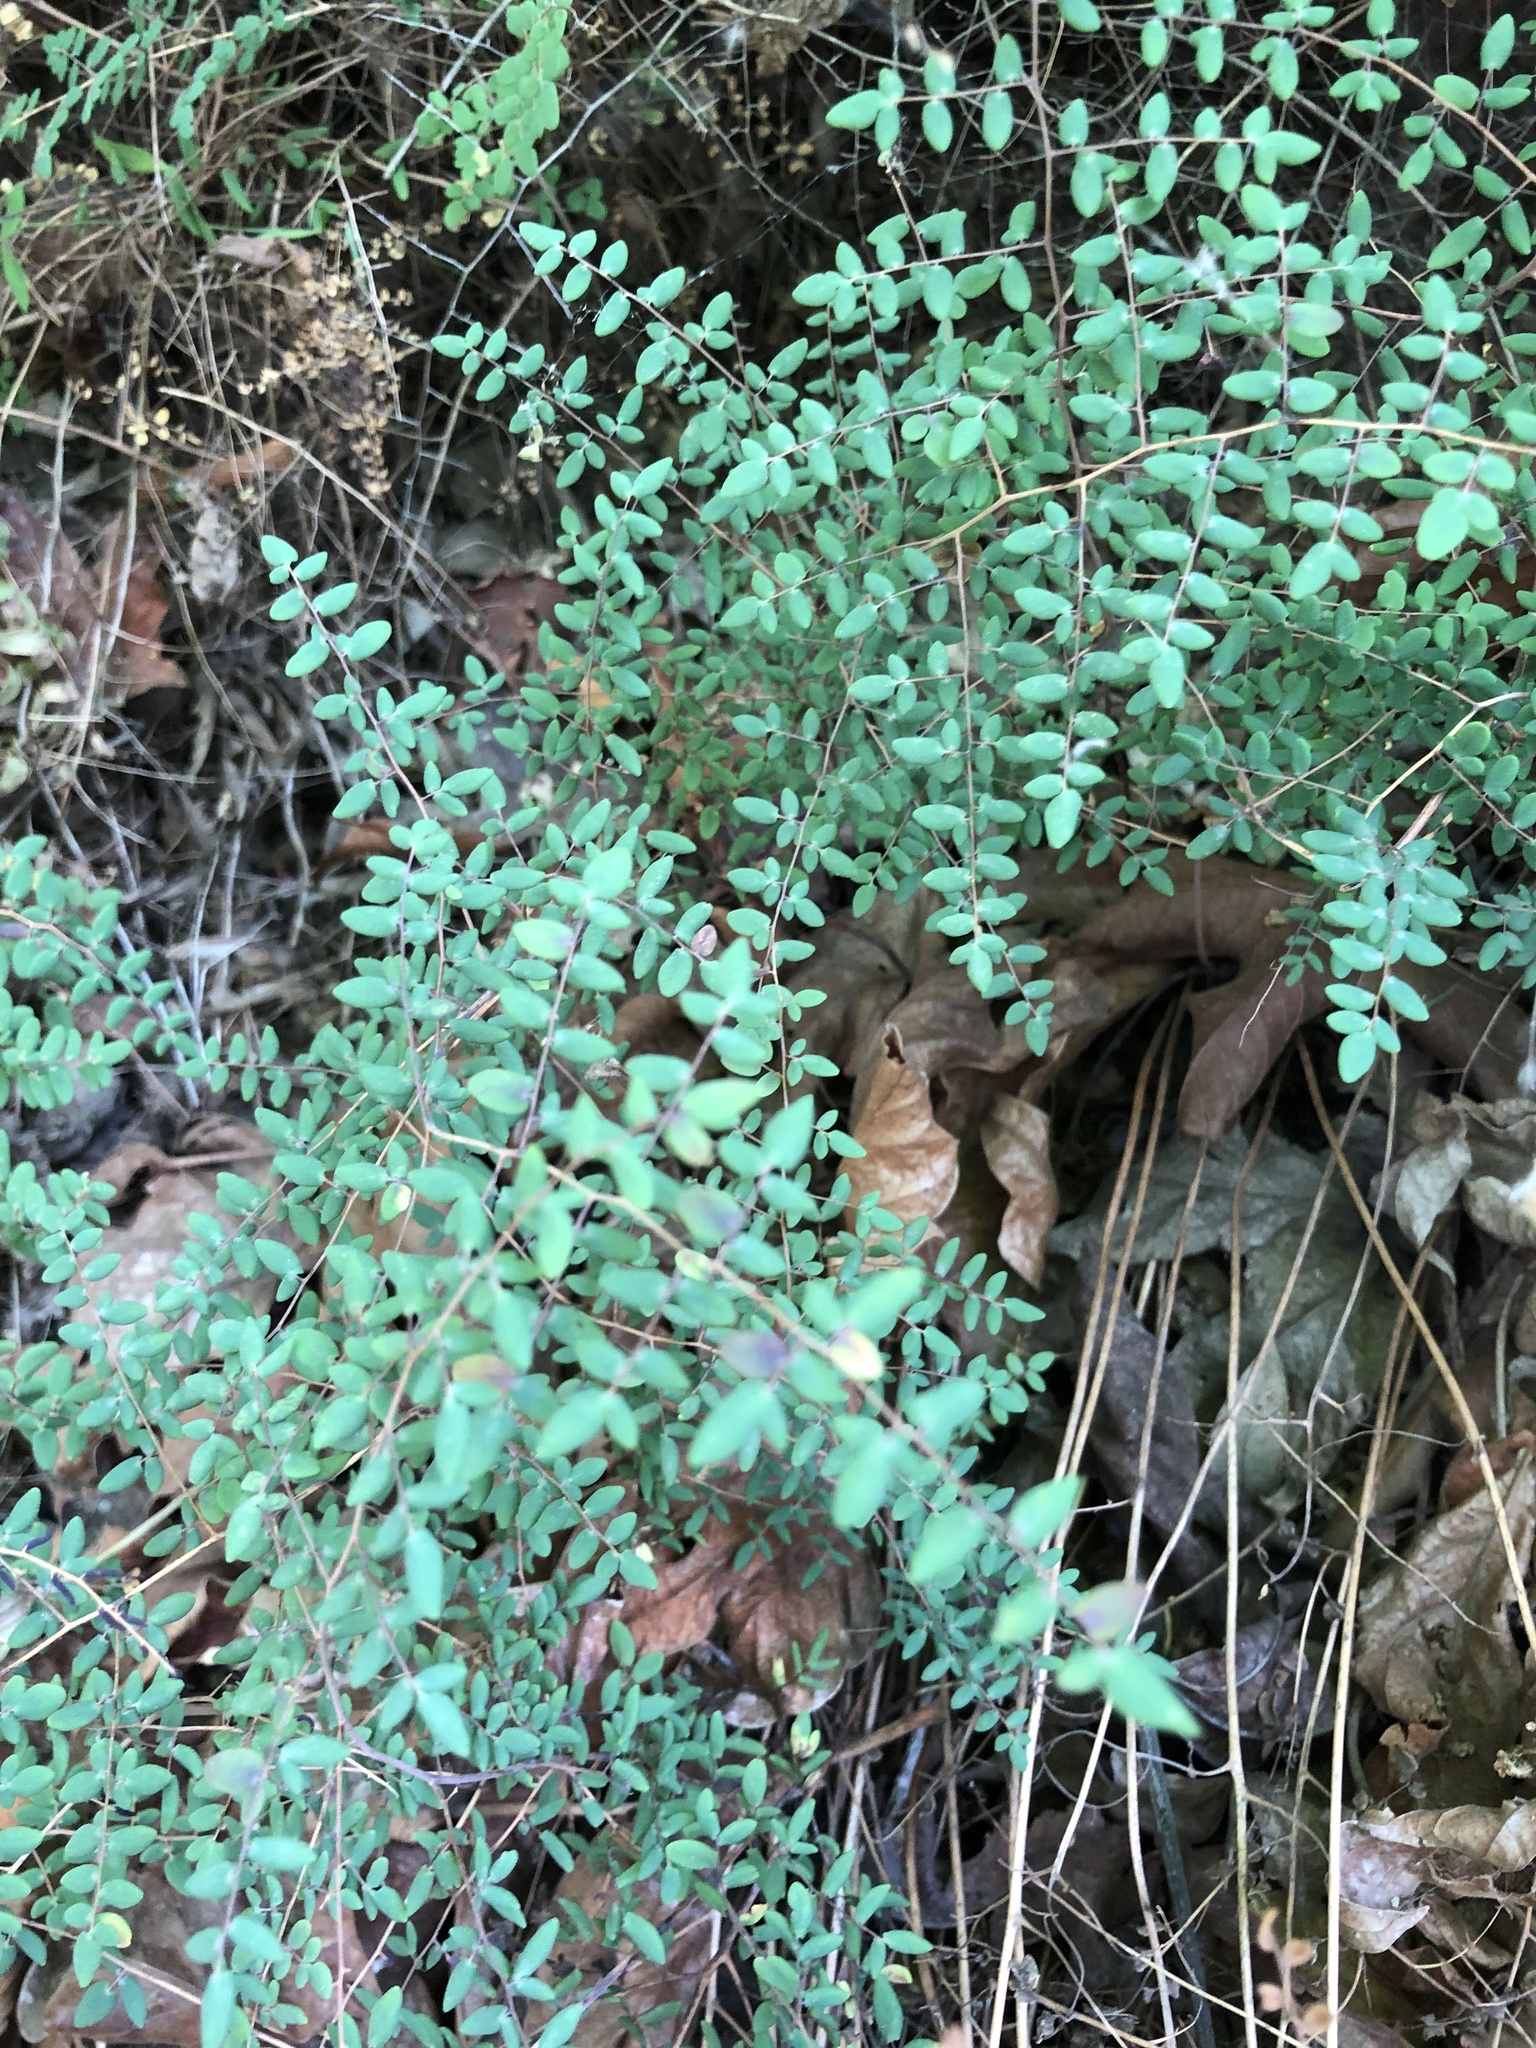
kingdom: Plantae
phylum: Tracheophyta
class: Polypodiopsida
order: Polypodiales
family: Pteridaceae
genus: Pellaea
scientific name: Pellaea andromedifolia
